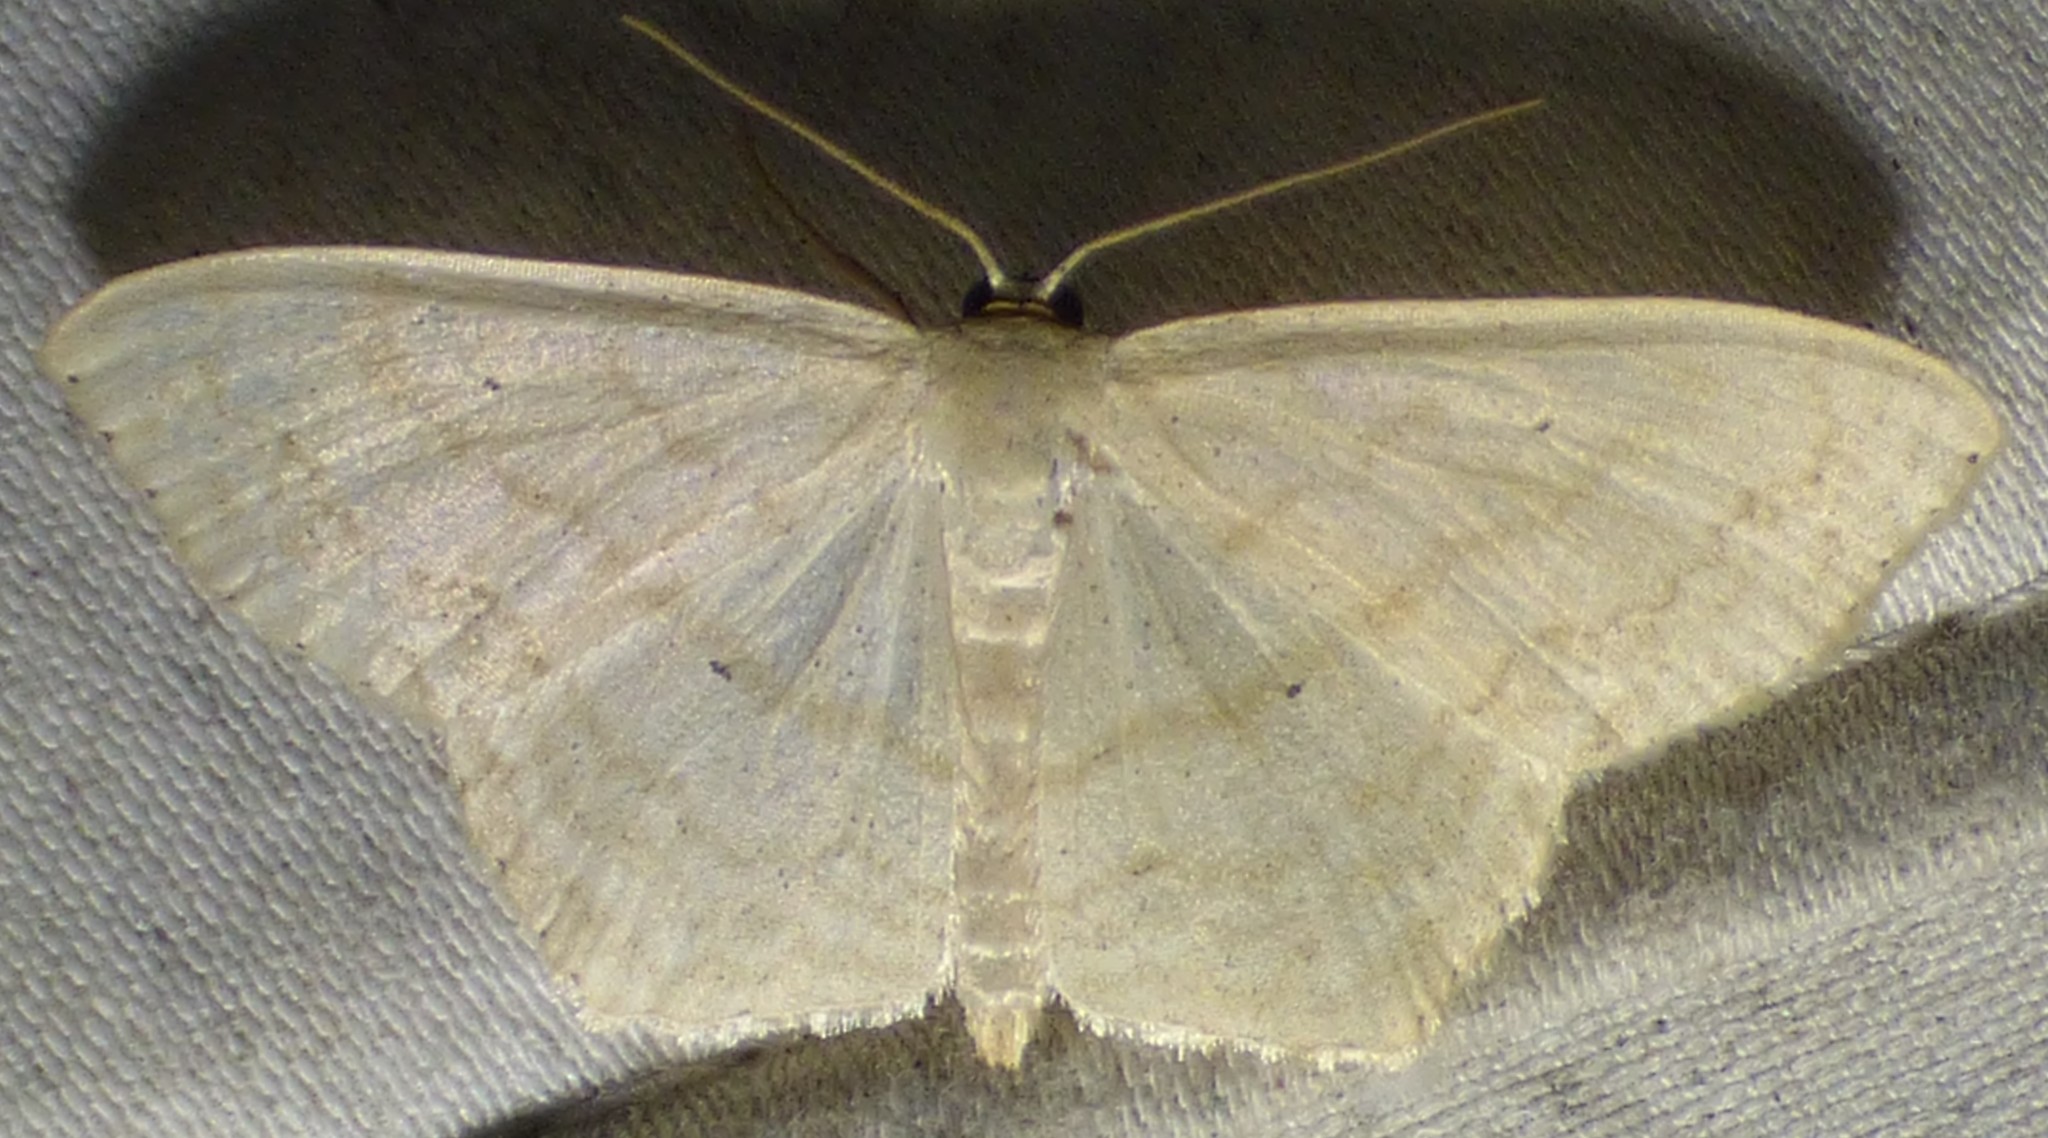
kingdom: Animalia
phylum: Arthropoda
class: Insecta
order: Lepidoptera
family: Geometridae
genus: Scopula
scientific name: Scopula limboundata
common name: Large lace border
